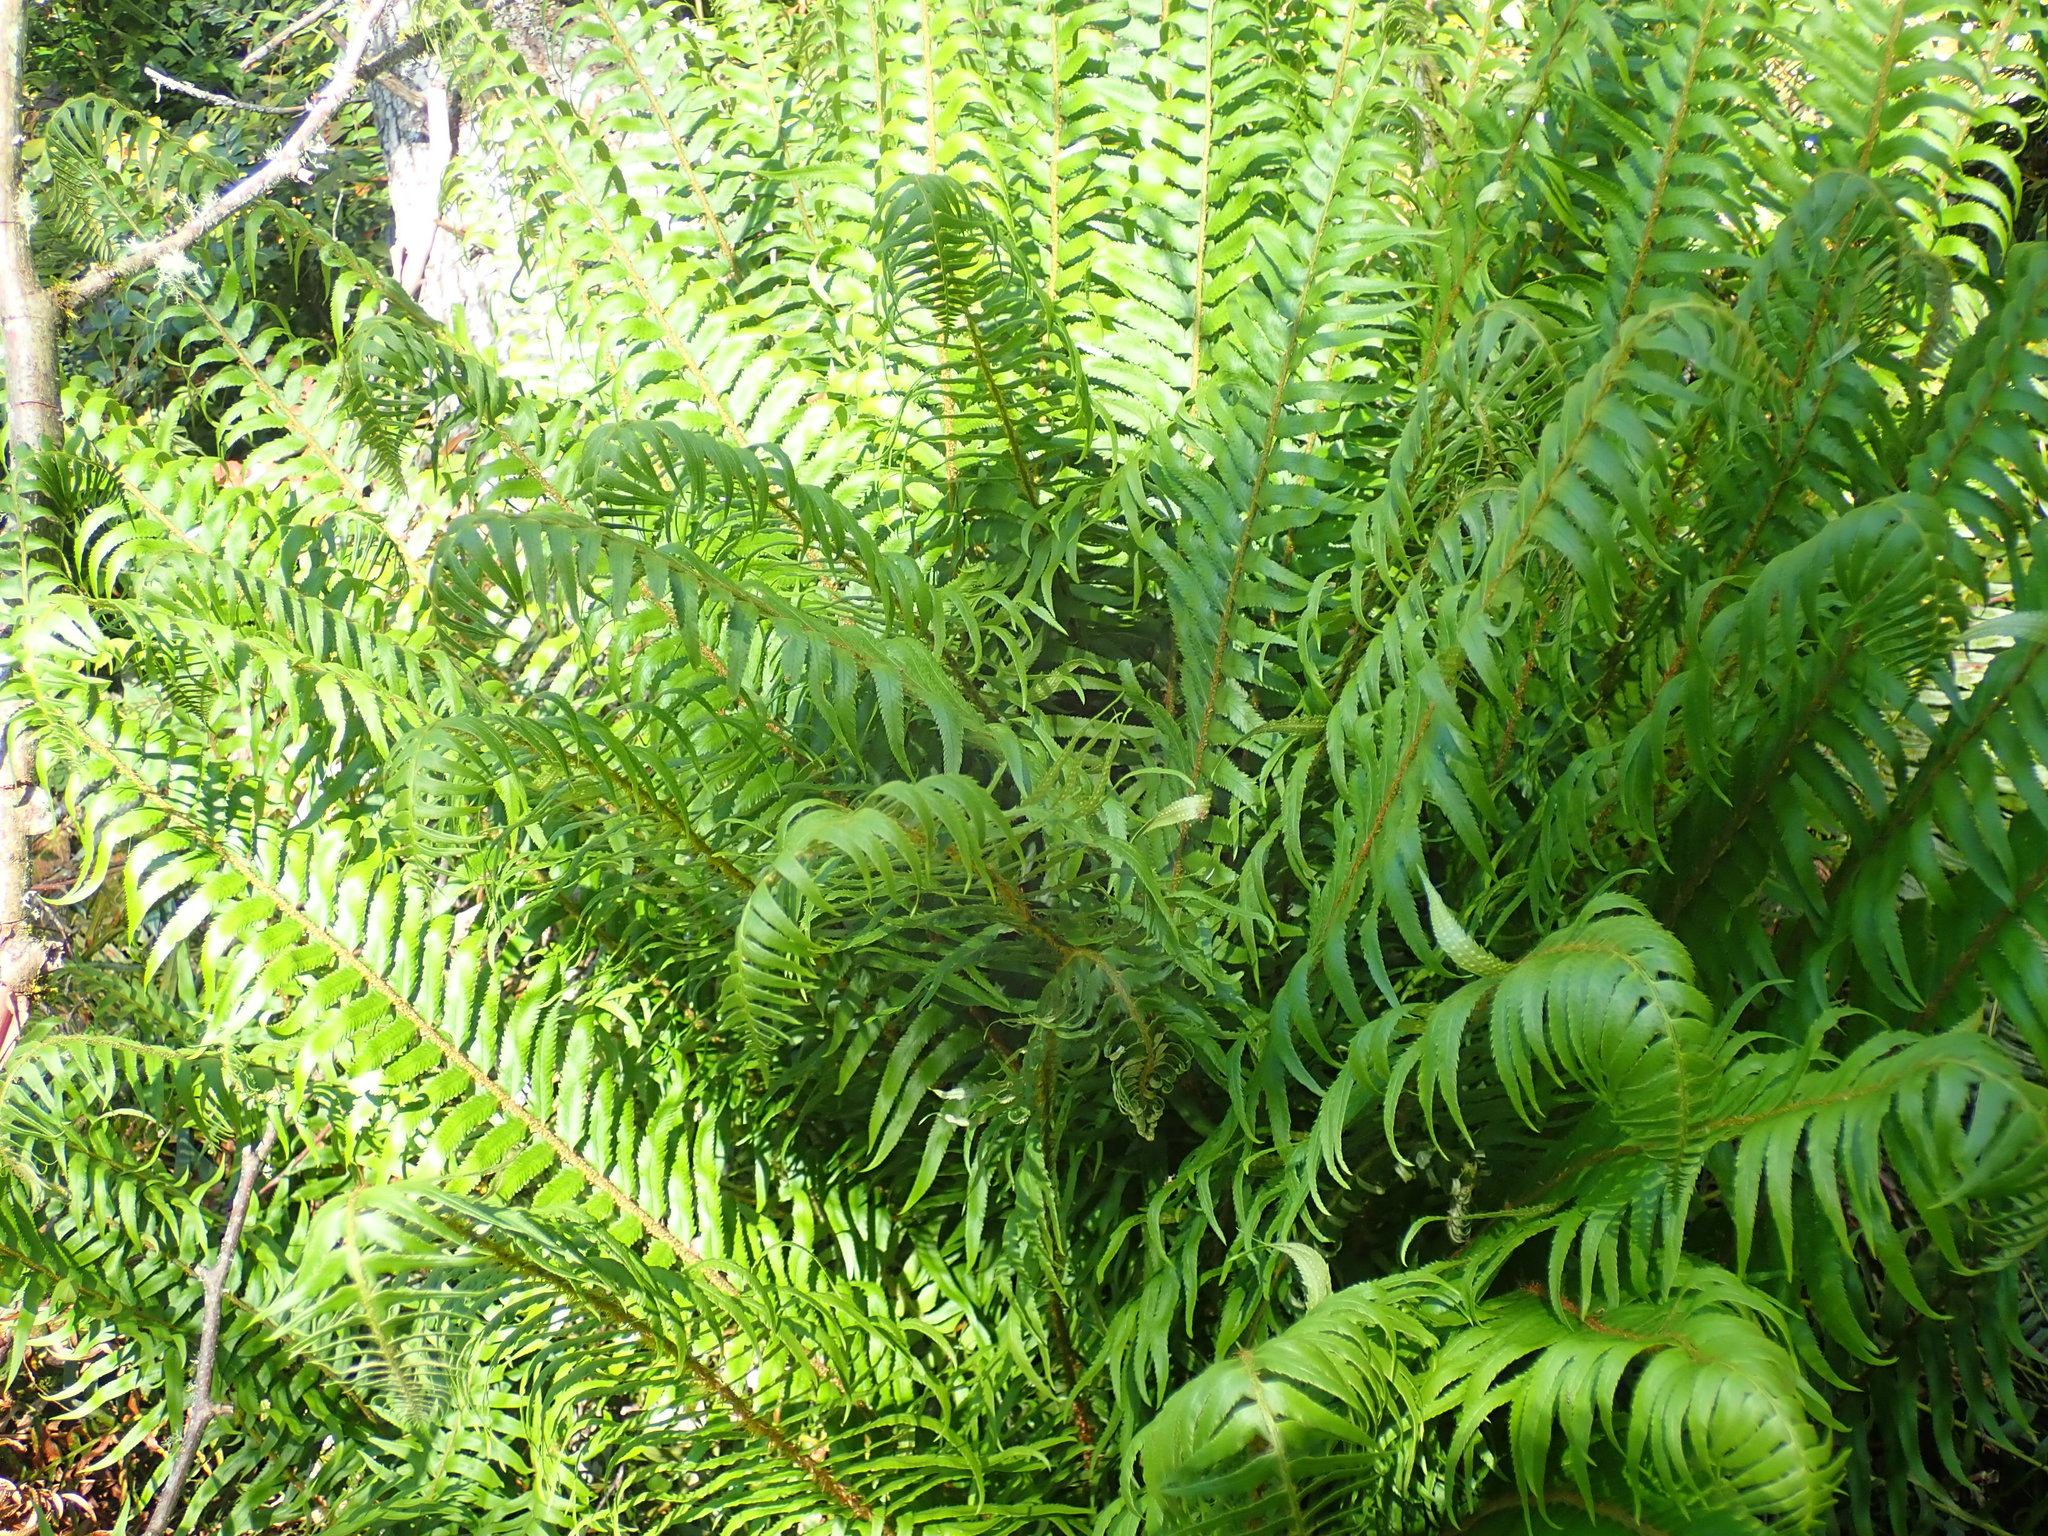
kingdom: Plantae
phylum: Tracheophyta
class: Polypodiopsida
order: Polypodiales
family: Dryopteridaceae
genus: Polystichum
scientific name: Polystichum munitum
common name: Western sword-fern
